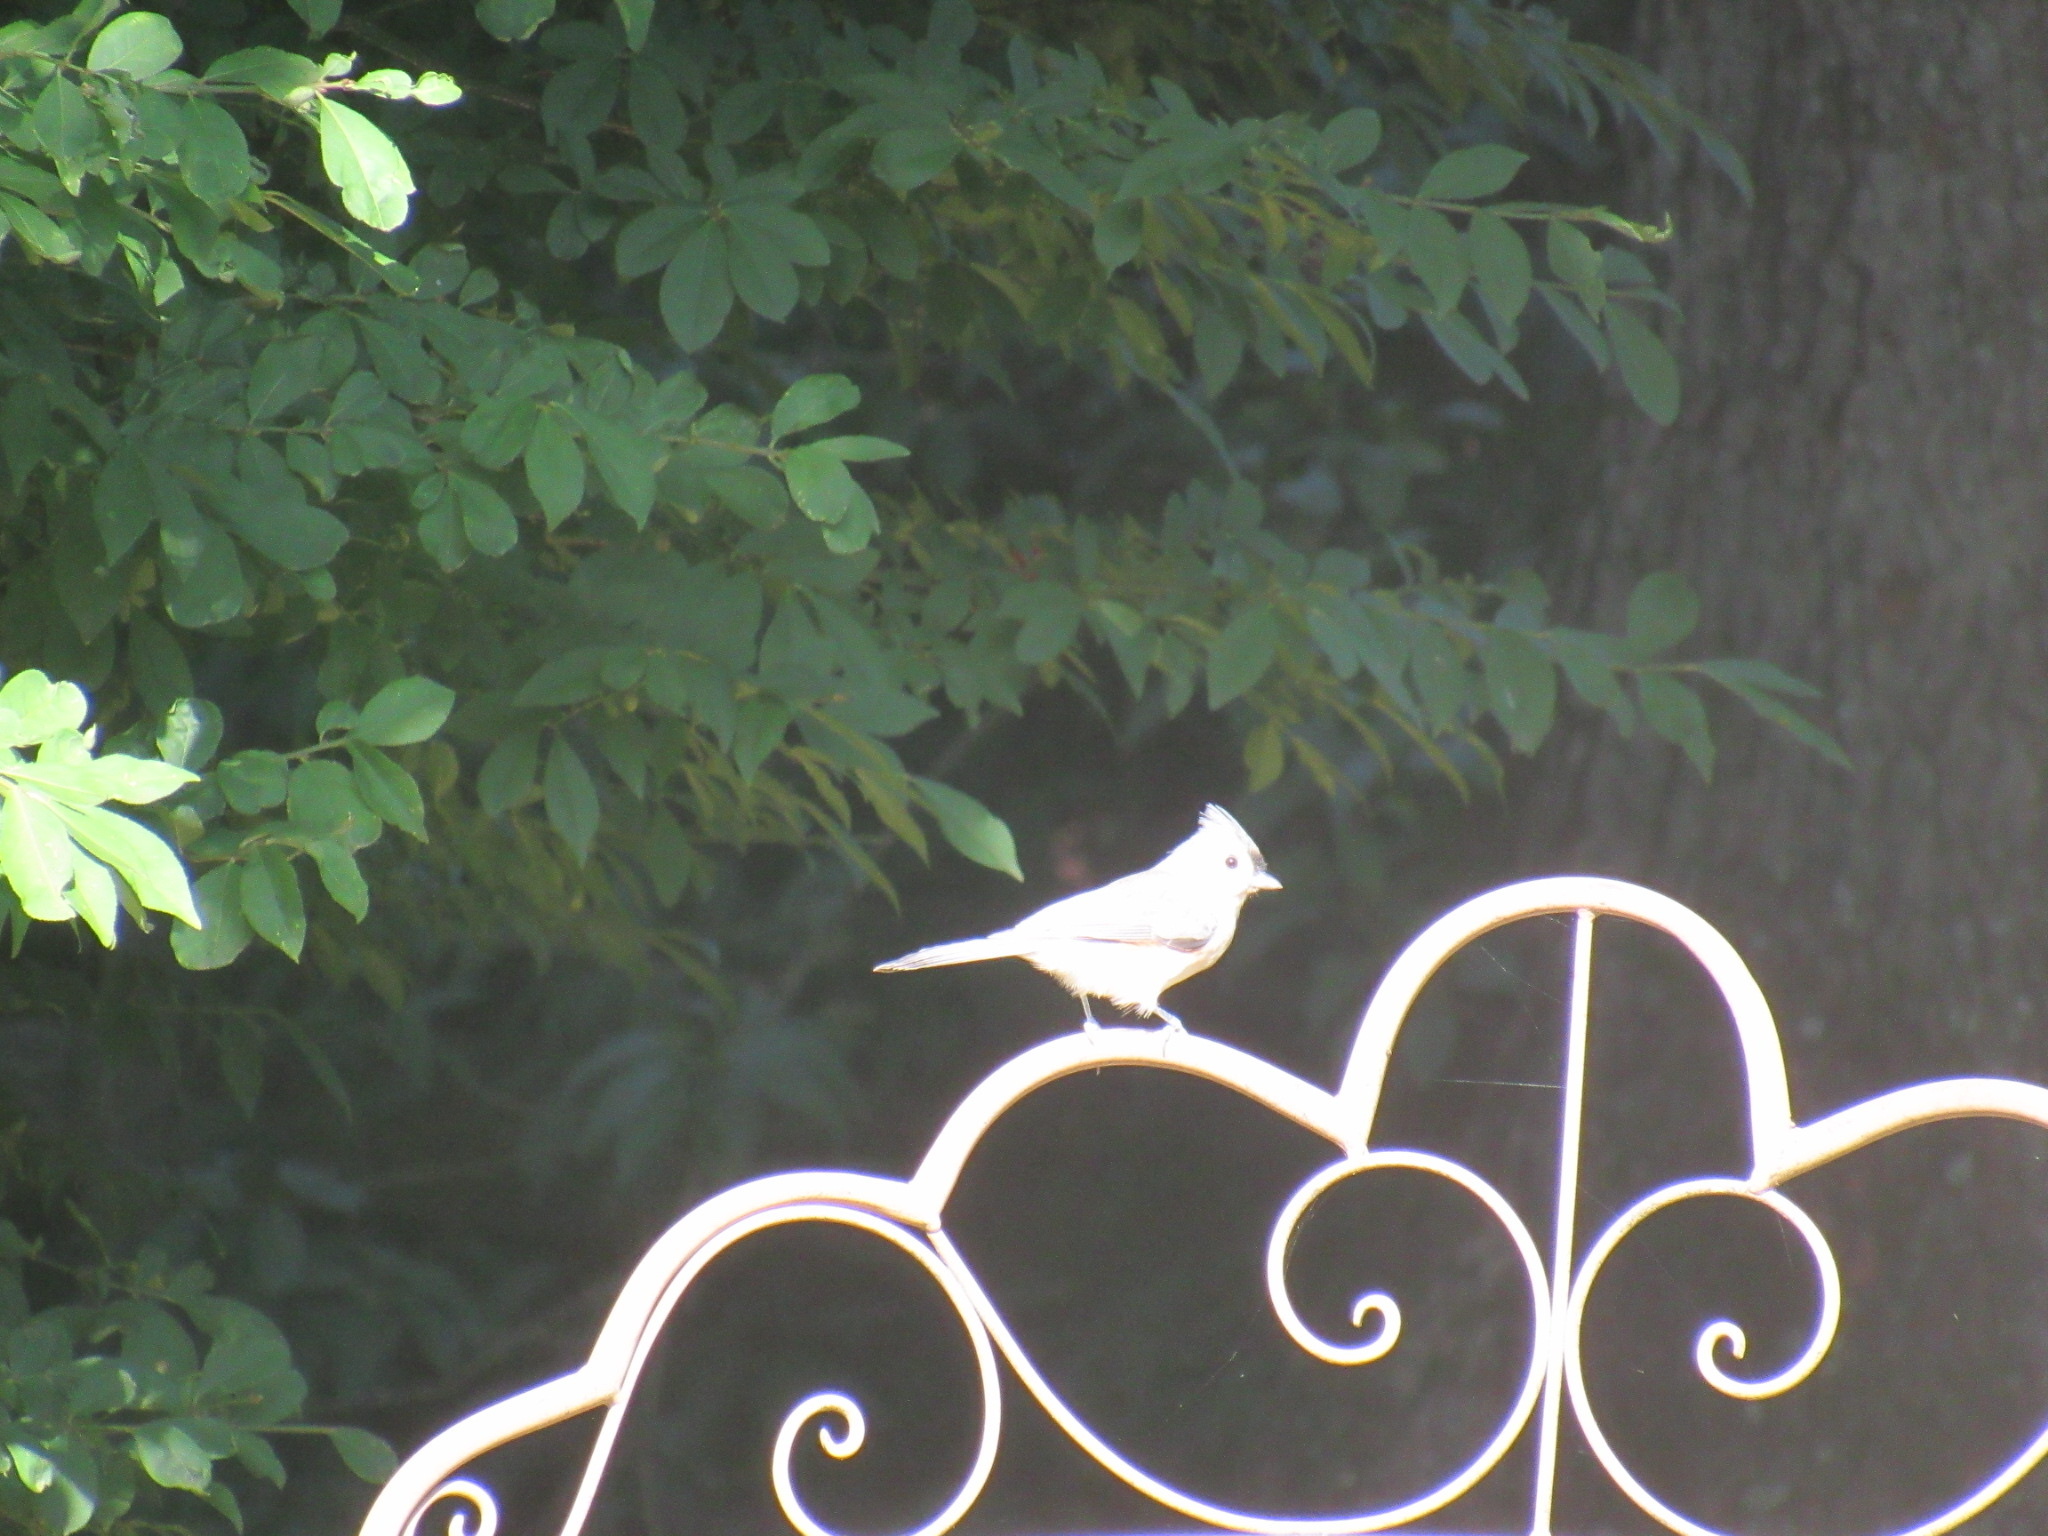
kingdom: Animalia
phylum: Chordata
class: Aves
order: Passeriformes
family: Paridae
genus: Baeolophus
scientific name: Baeolophus bicolor
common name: Tufted titmouse
